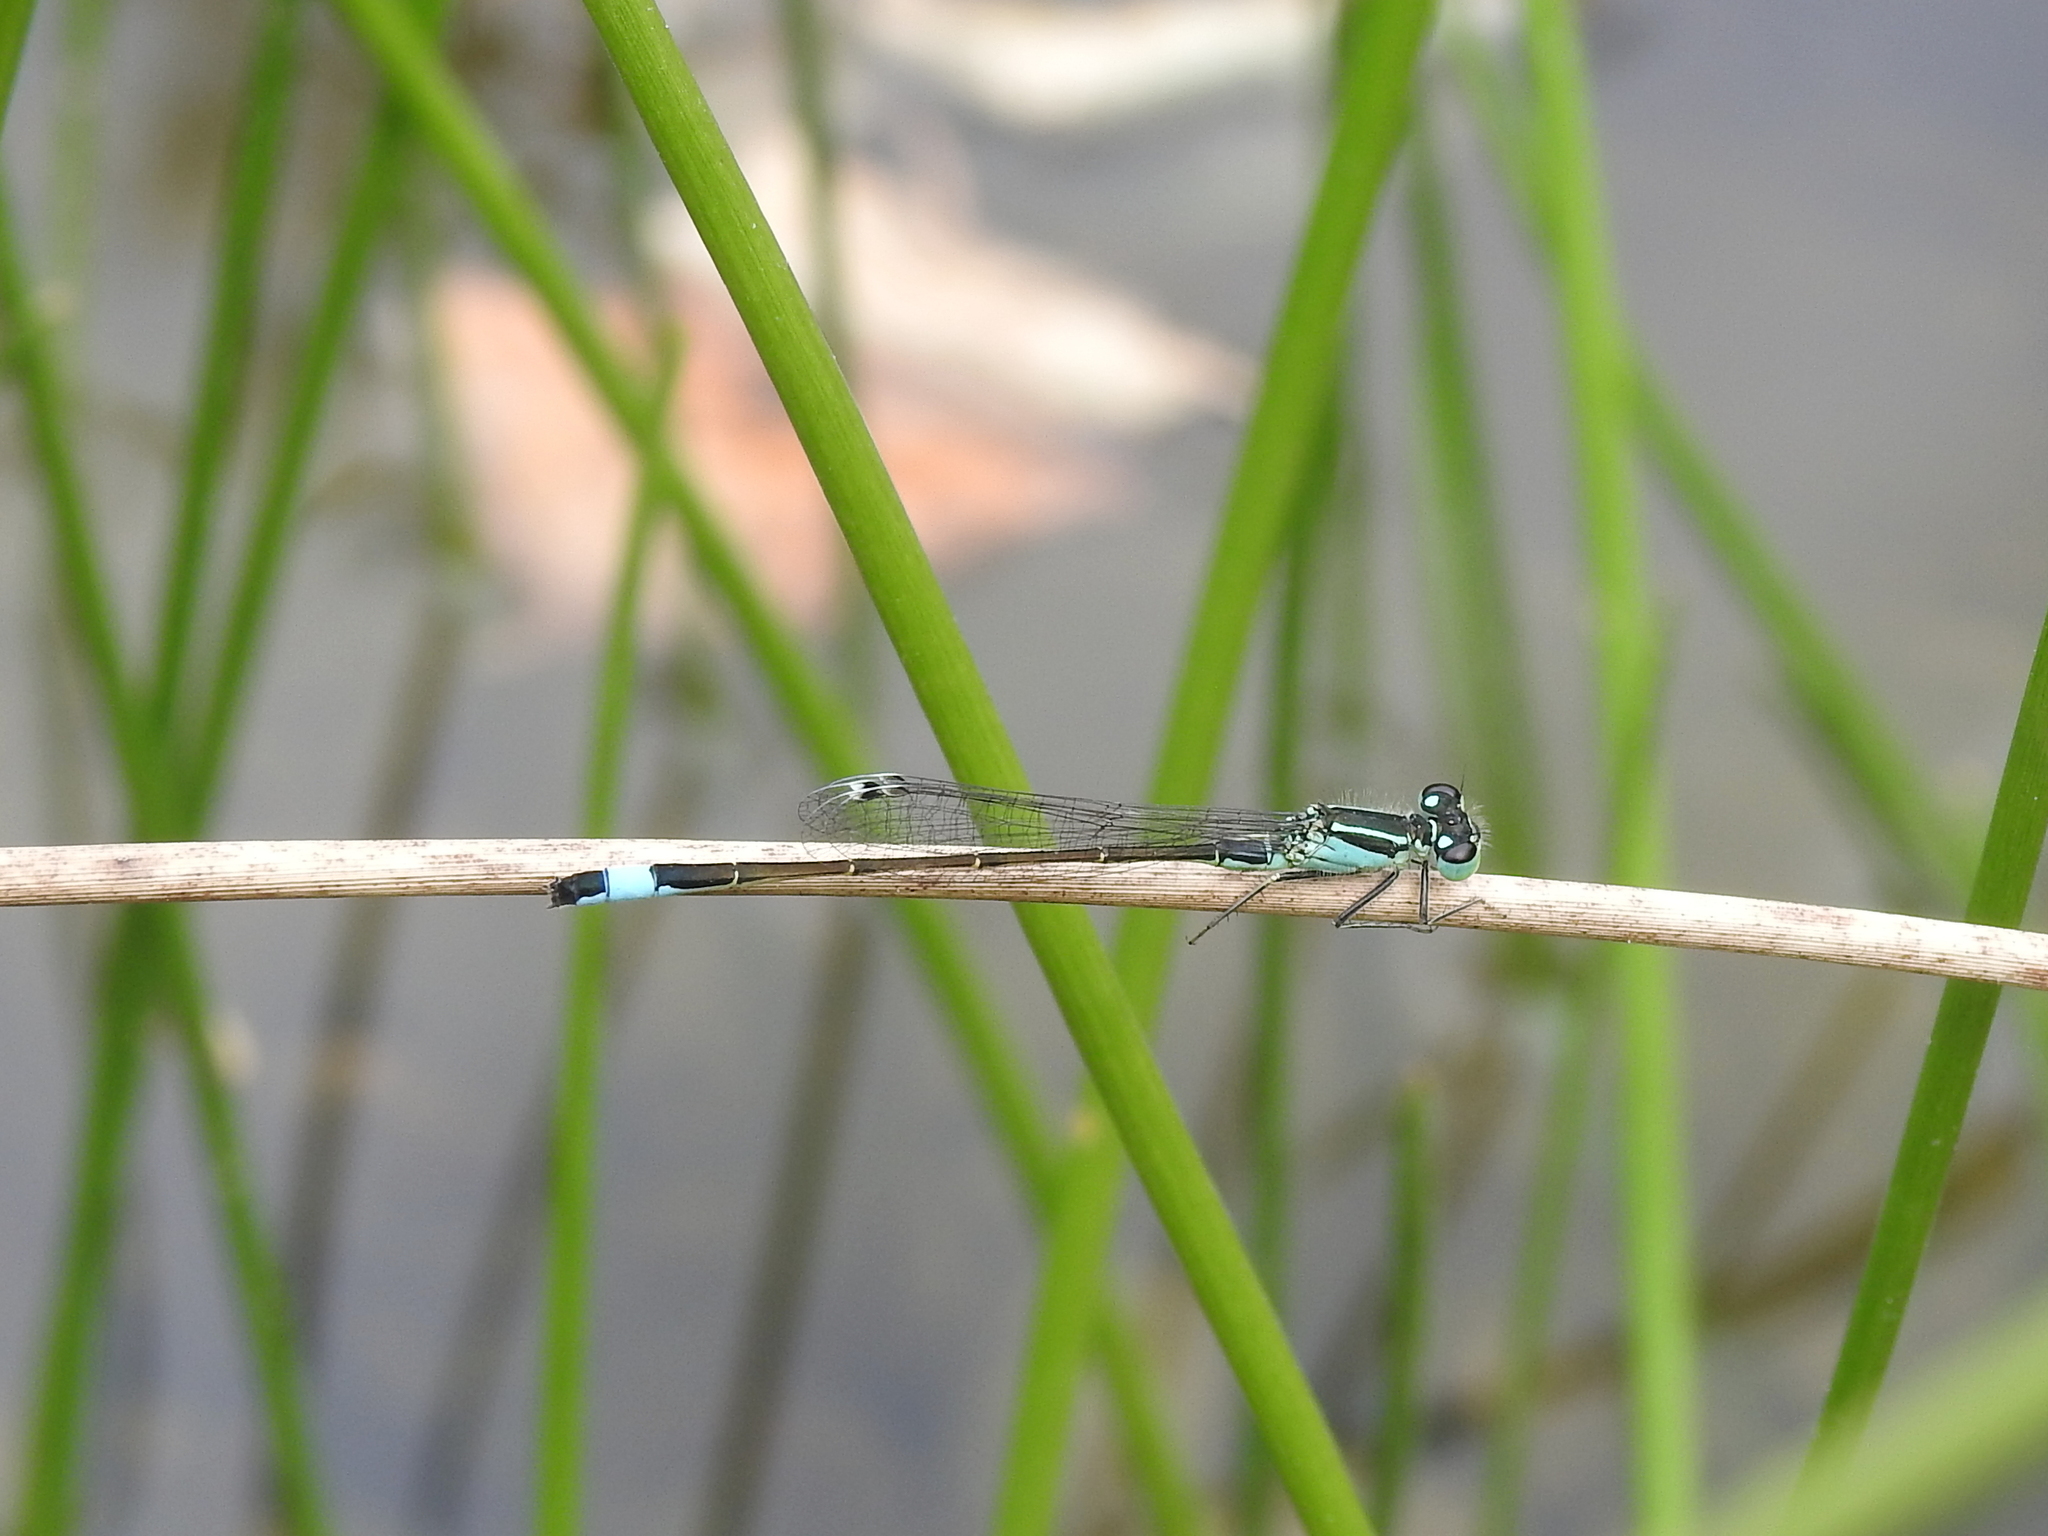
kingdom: Animalia
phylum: Arthropoda
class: Insecta
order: Odonata
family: Coenagrionidae
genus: Ischnura
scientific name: Ischnura elegans
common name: Blue-tailed damselfly
